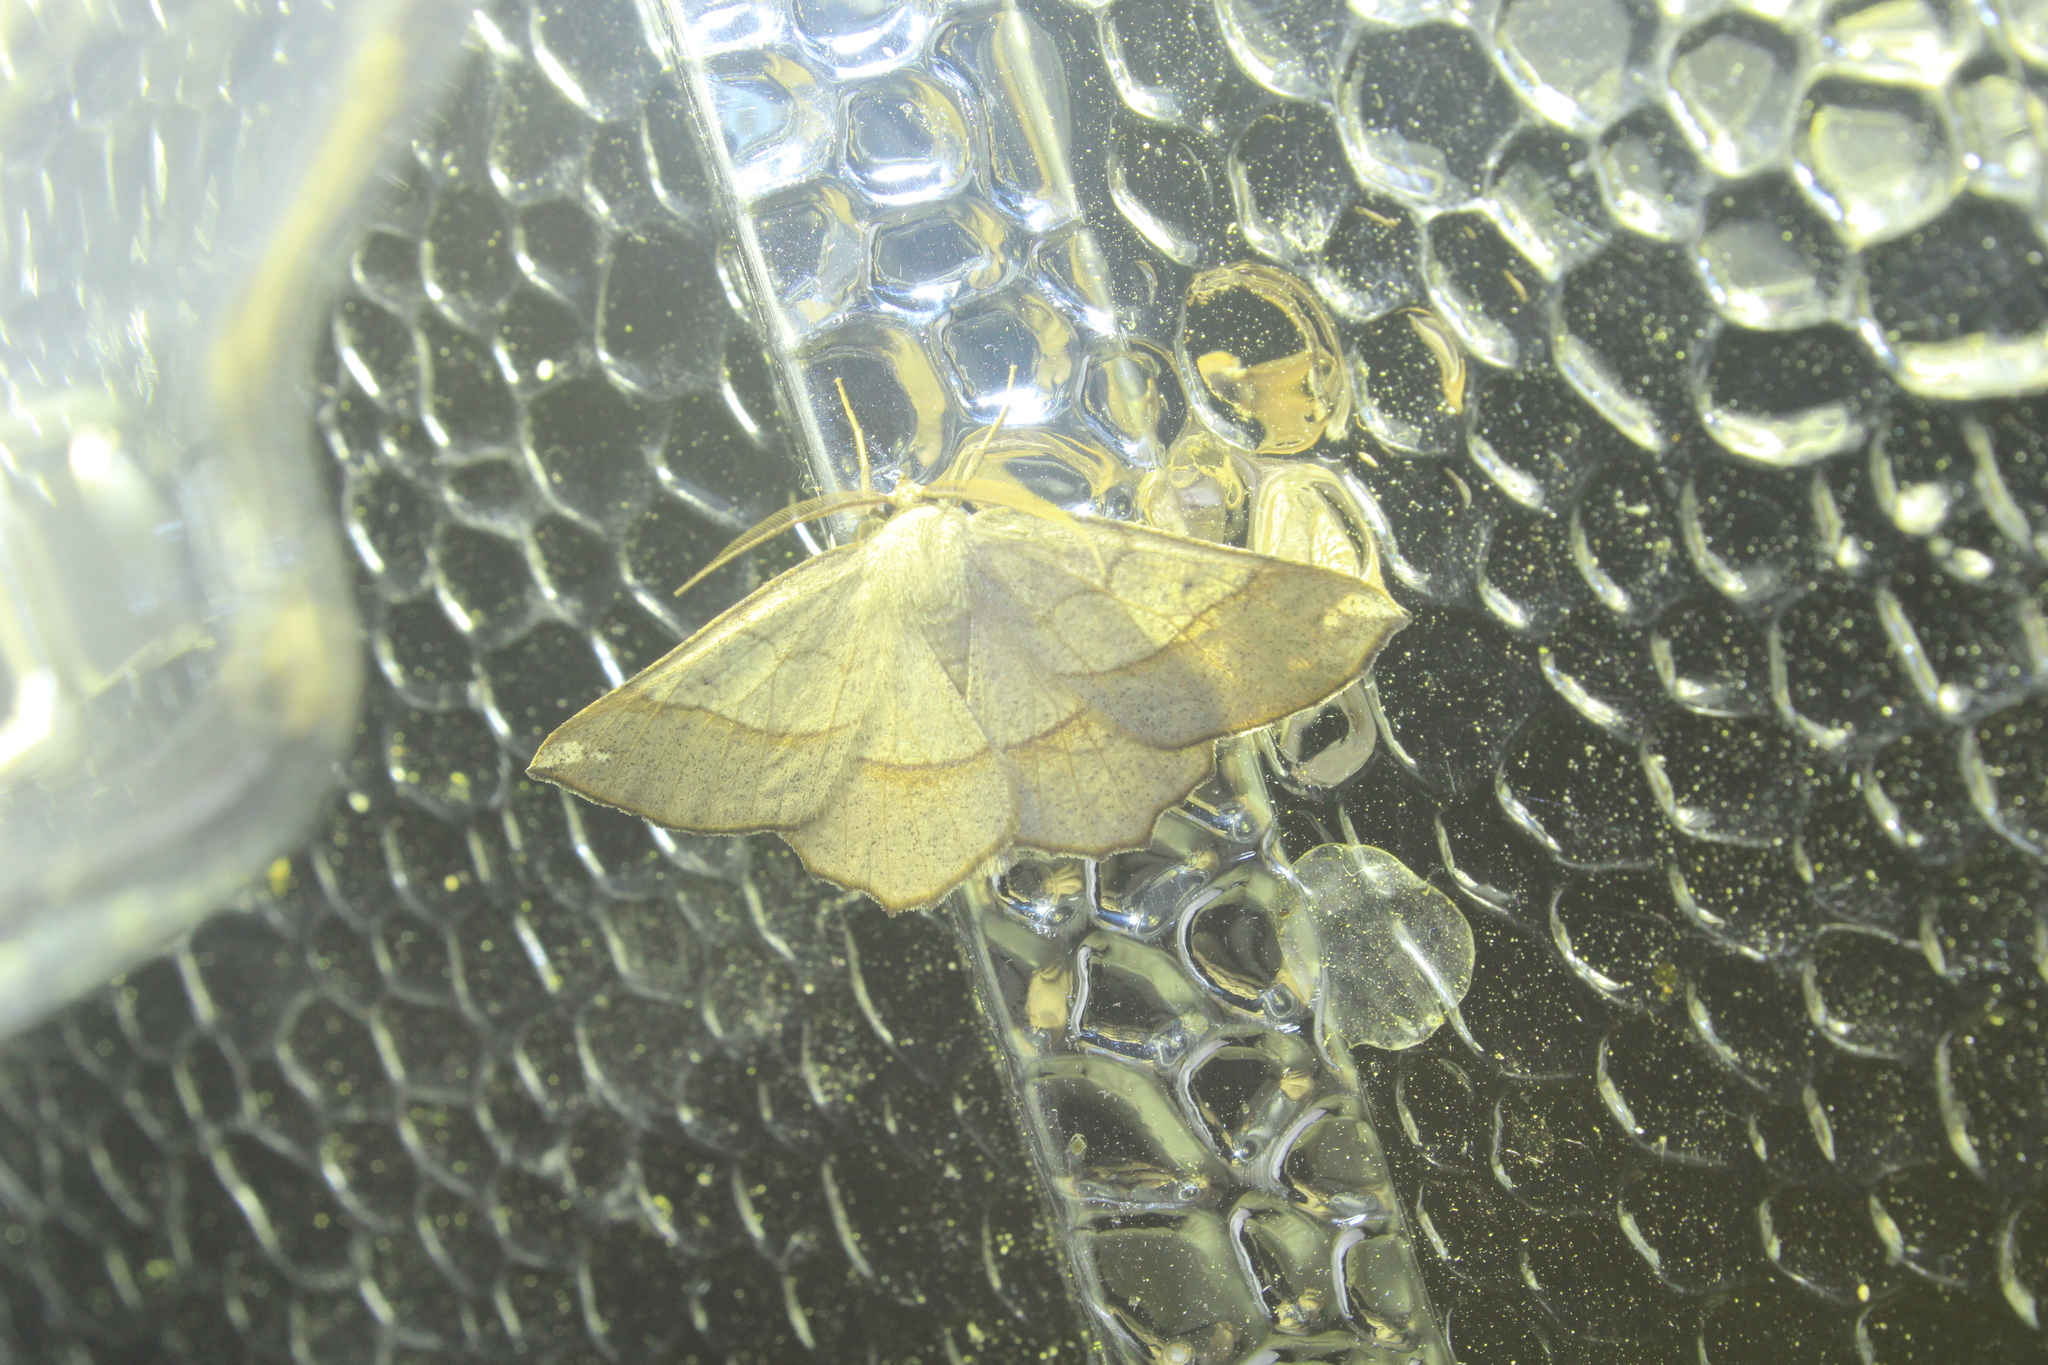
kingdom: Animalia
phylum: Arthropoda
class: Insecta
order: Lepidoptera
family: Geometridae
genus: Euchlaena
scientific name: Euchlaena madusaria
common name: Scrub euchlaena moth
